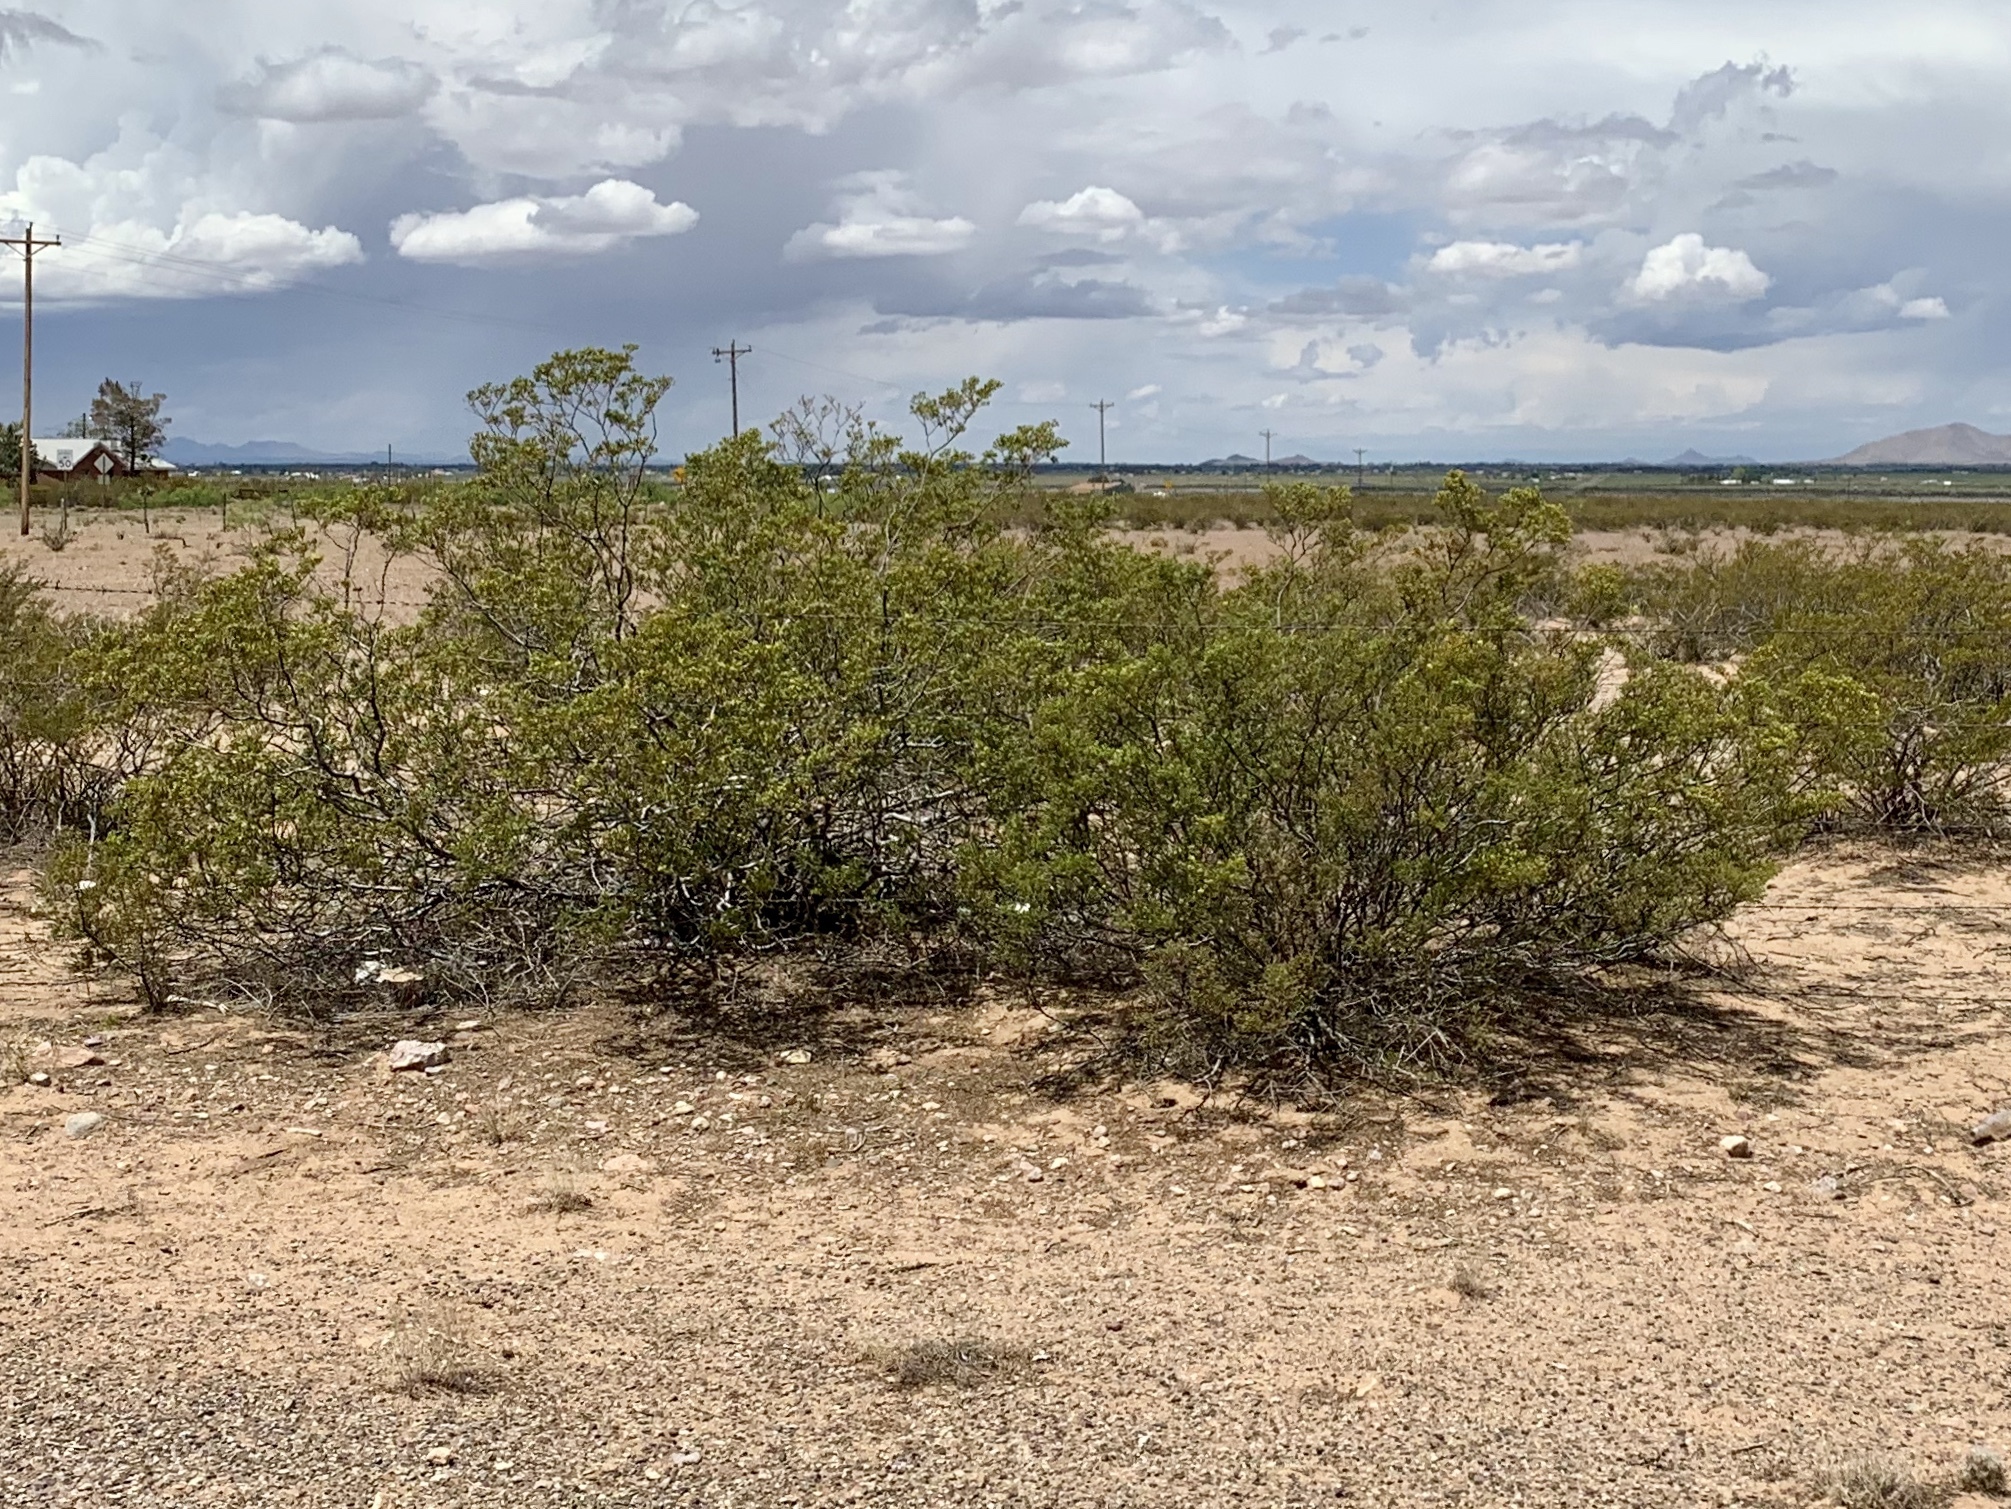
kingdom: Plantae
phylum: Tracheophyta
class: Magnoliopsida
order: Zygophyllales
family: Zygophyllaceae
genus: Larrea
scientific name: Larrea tridentata
